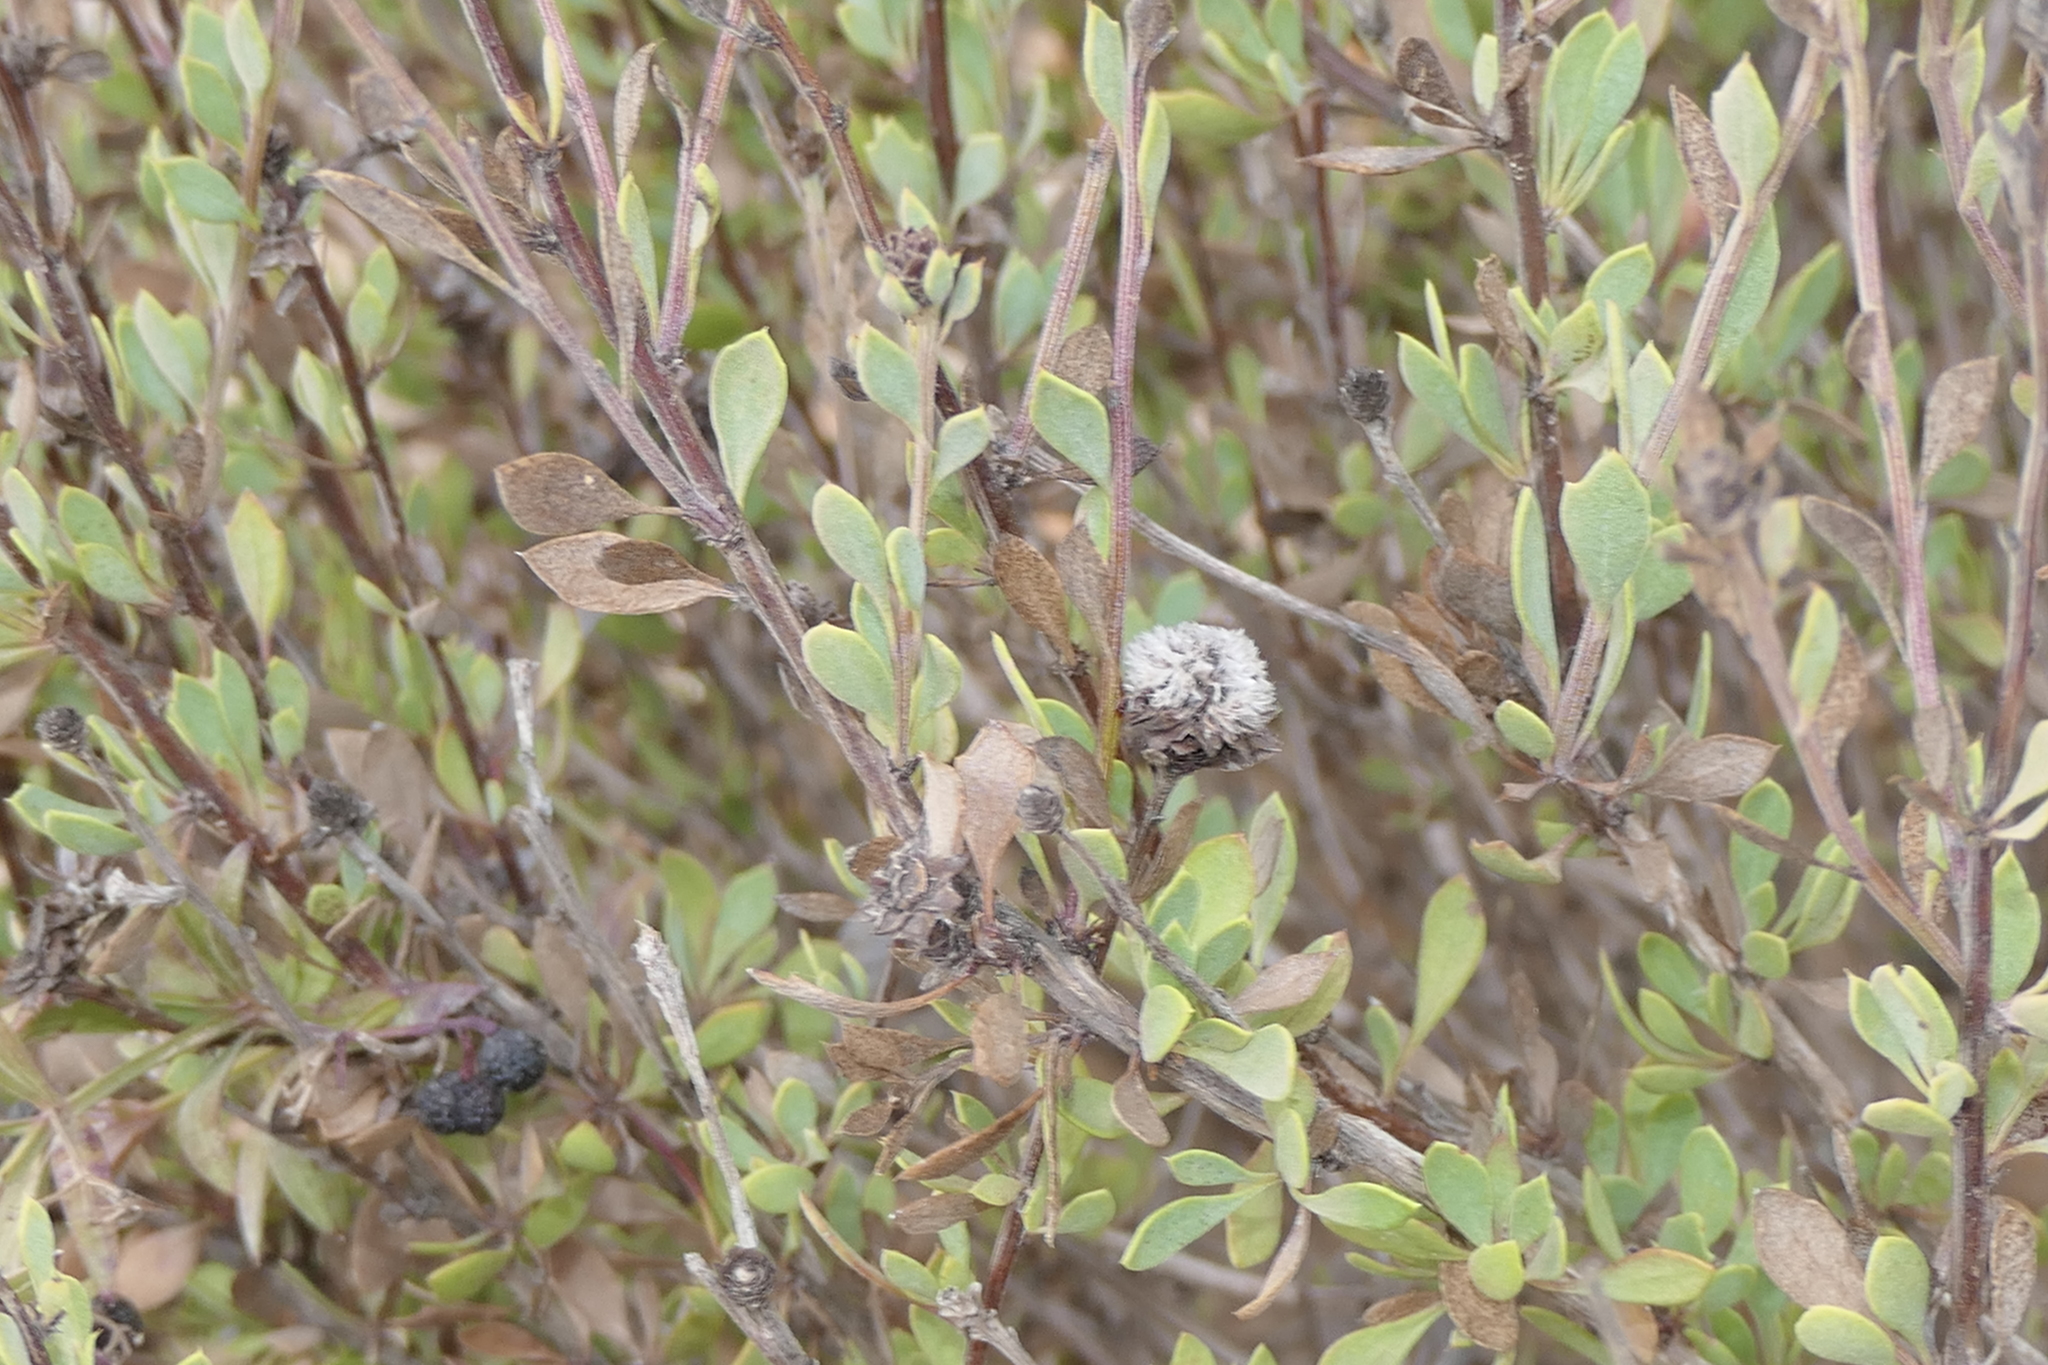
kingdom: Plantae
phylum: Tracheophyta
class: Magnoliopsida
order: Lamiales
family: Plantaginaceae
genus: Globularia
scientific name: Globularia alypum
